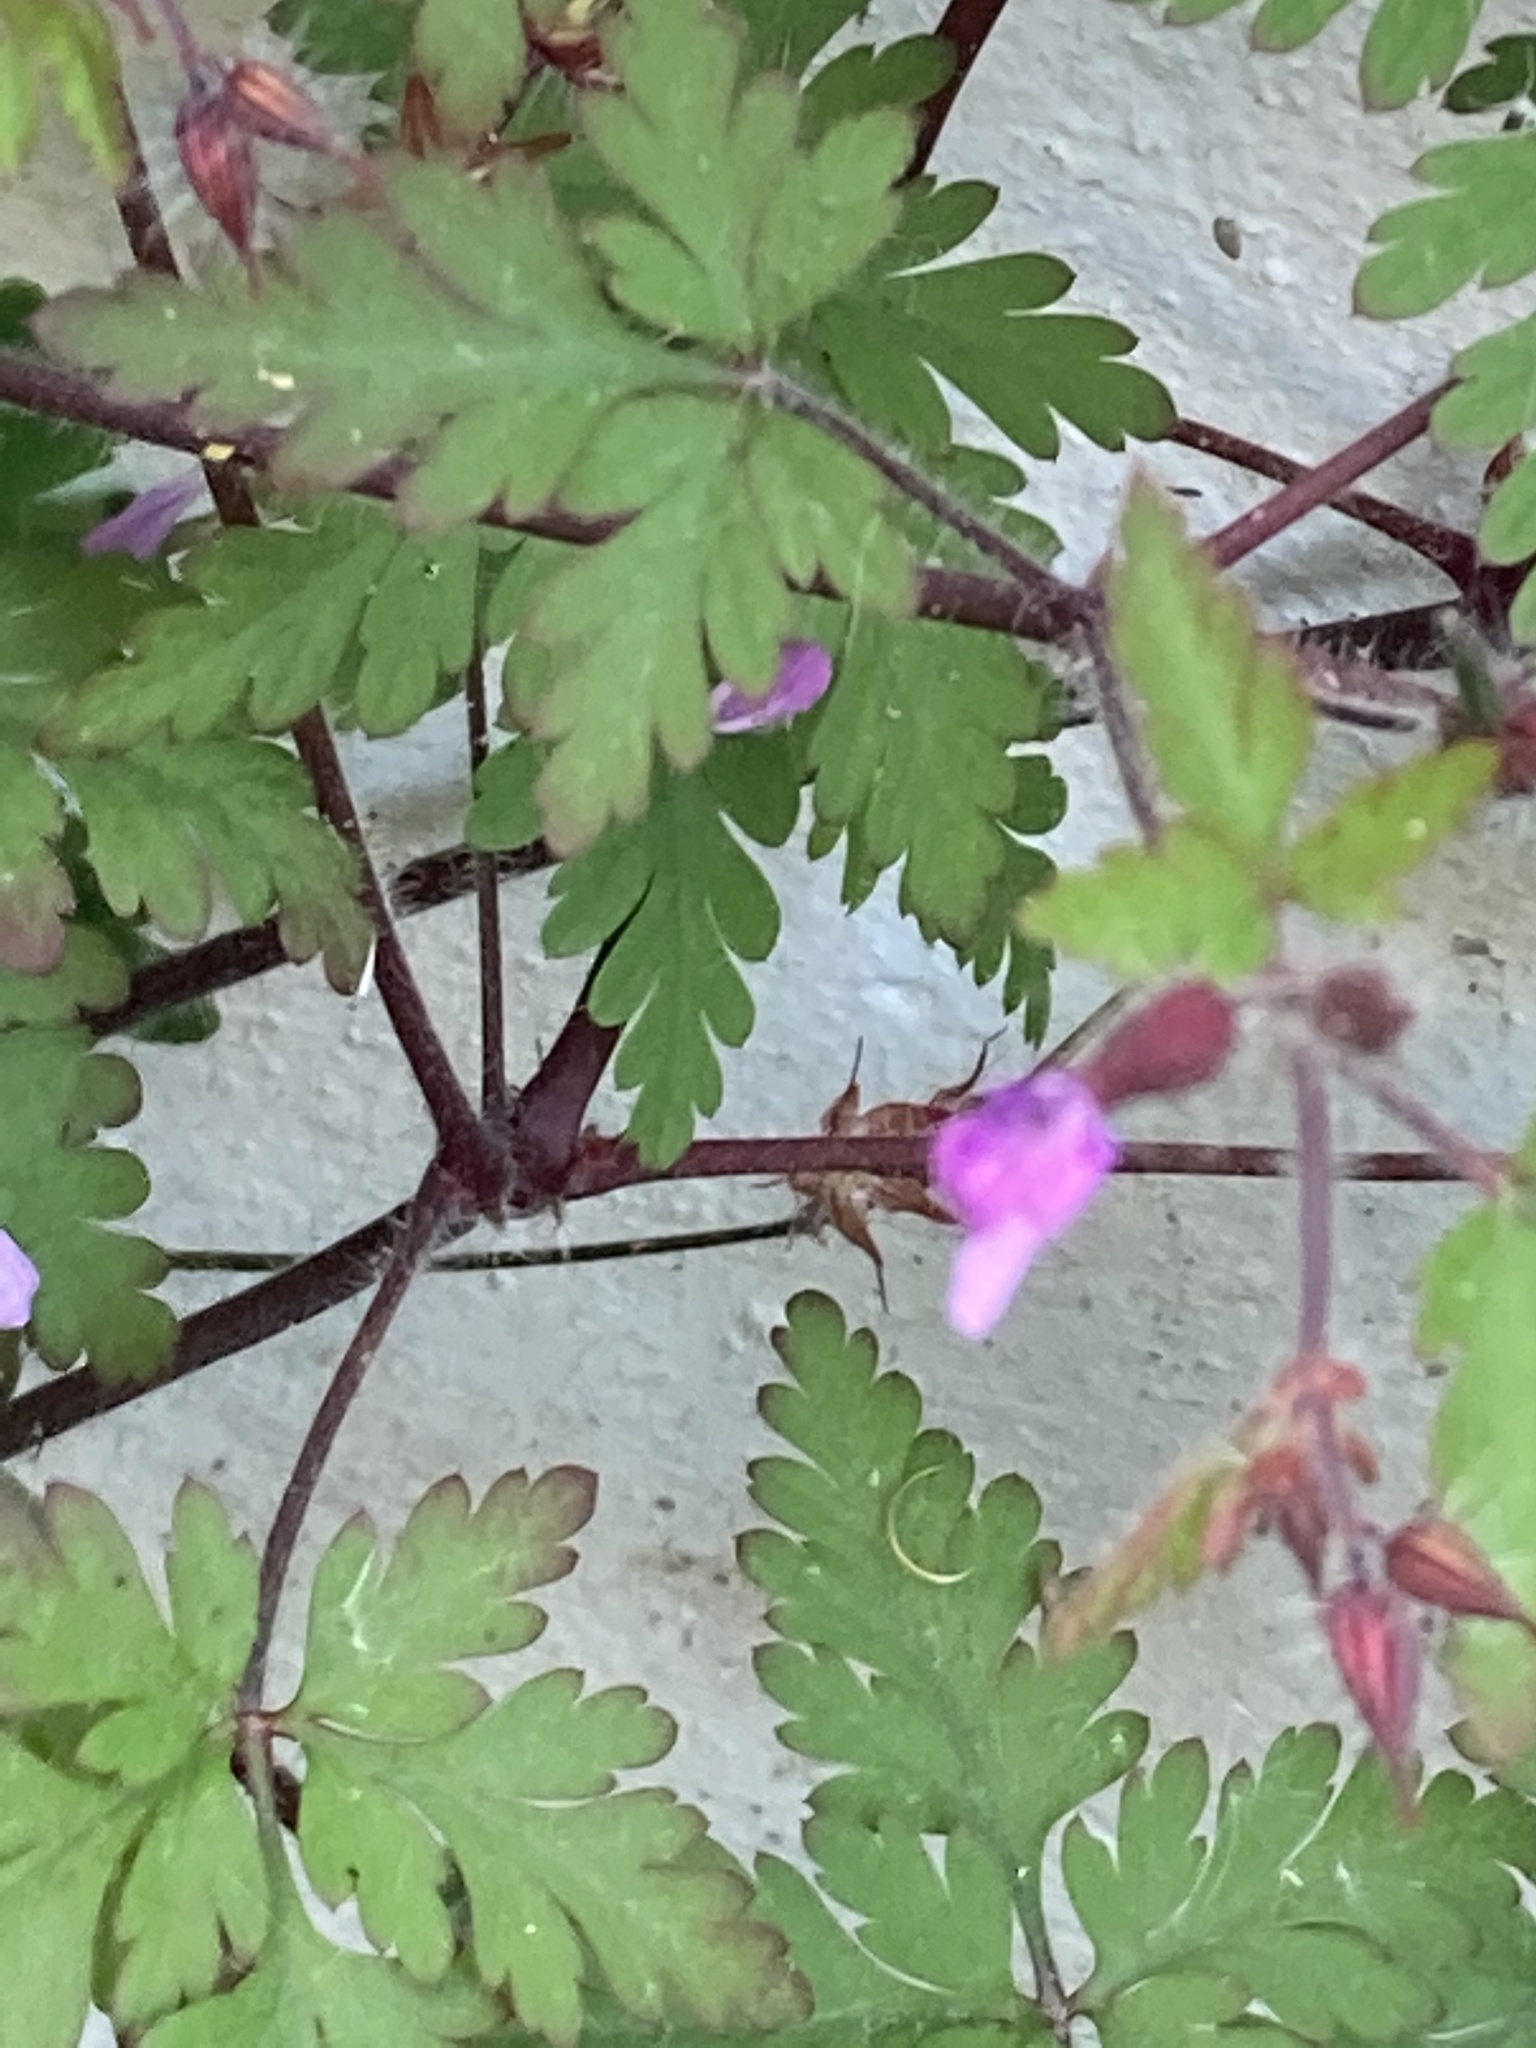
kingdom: Plantae
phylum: Tracheophyta
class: Magnoliopsida
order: Geraniales
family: Geraniaceae
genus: Geranium
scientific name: Geranium robertianum
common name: Herb-robert
